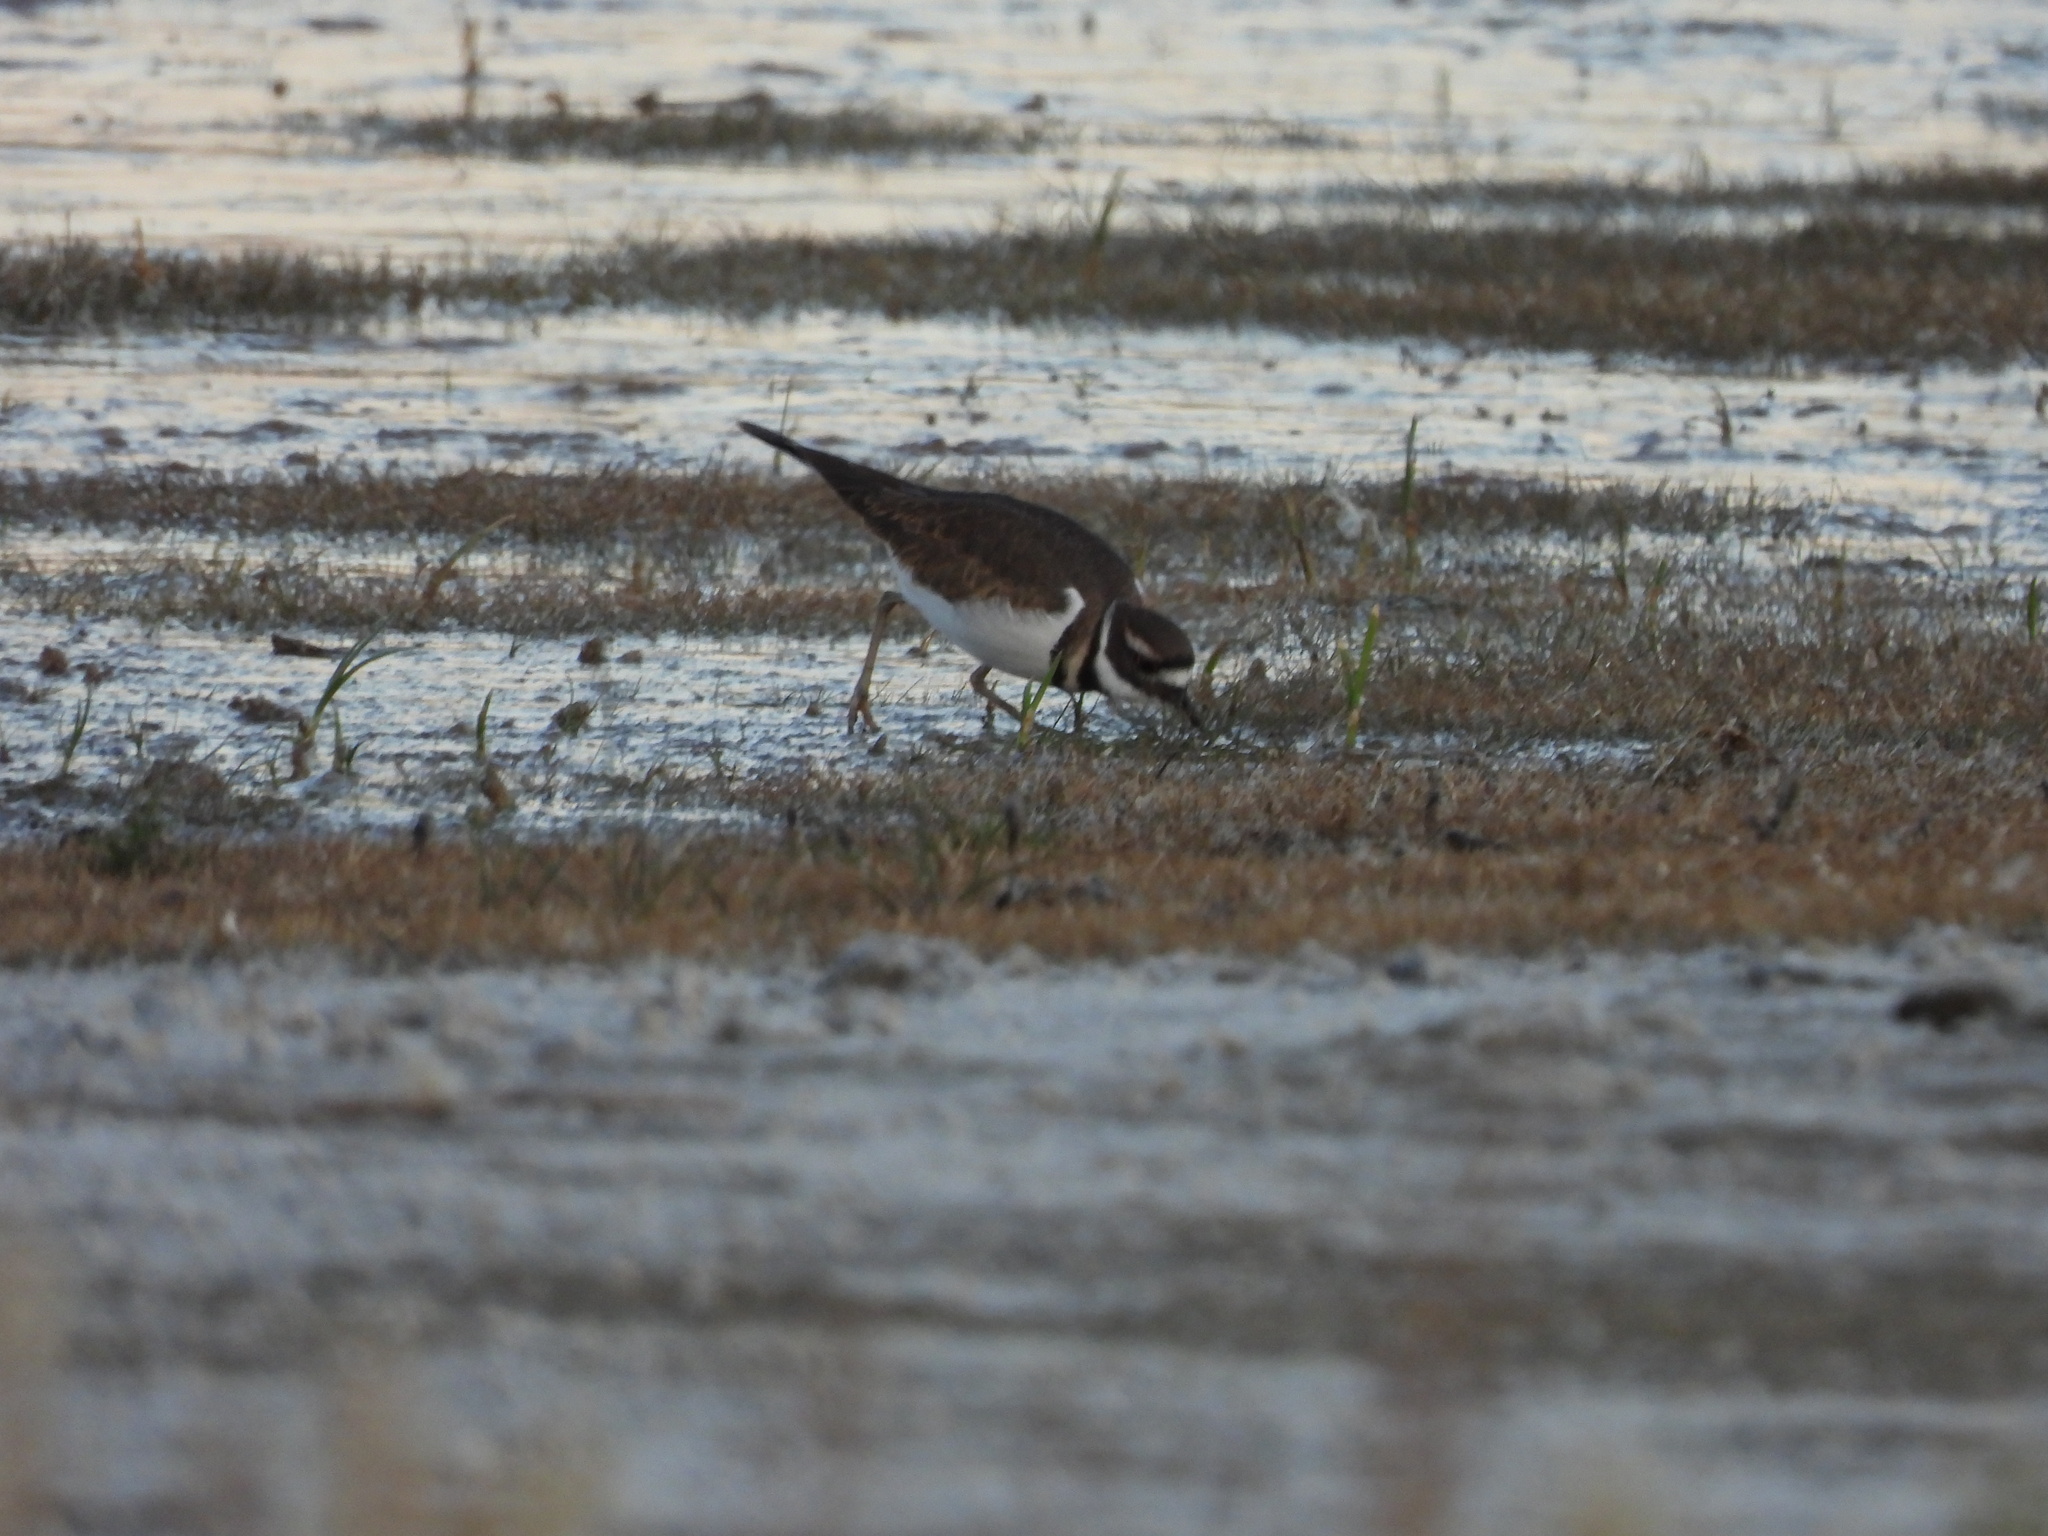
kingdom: Animalia
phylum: Chordata
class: Aves
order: Charadriiformes
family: Charadriidae
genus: Charadrius
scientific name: Charadrius vociferus
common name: Killdeer
